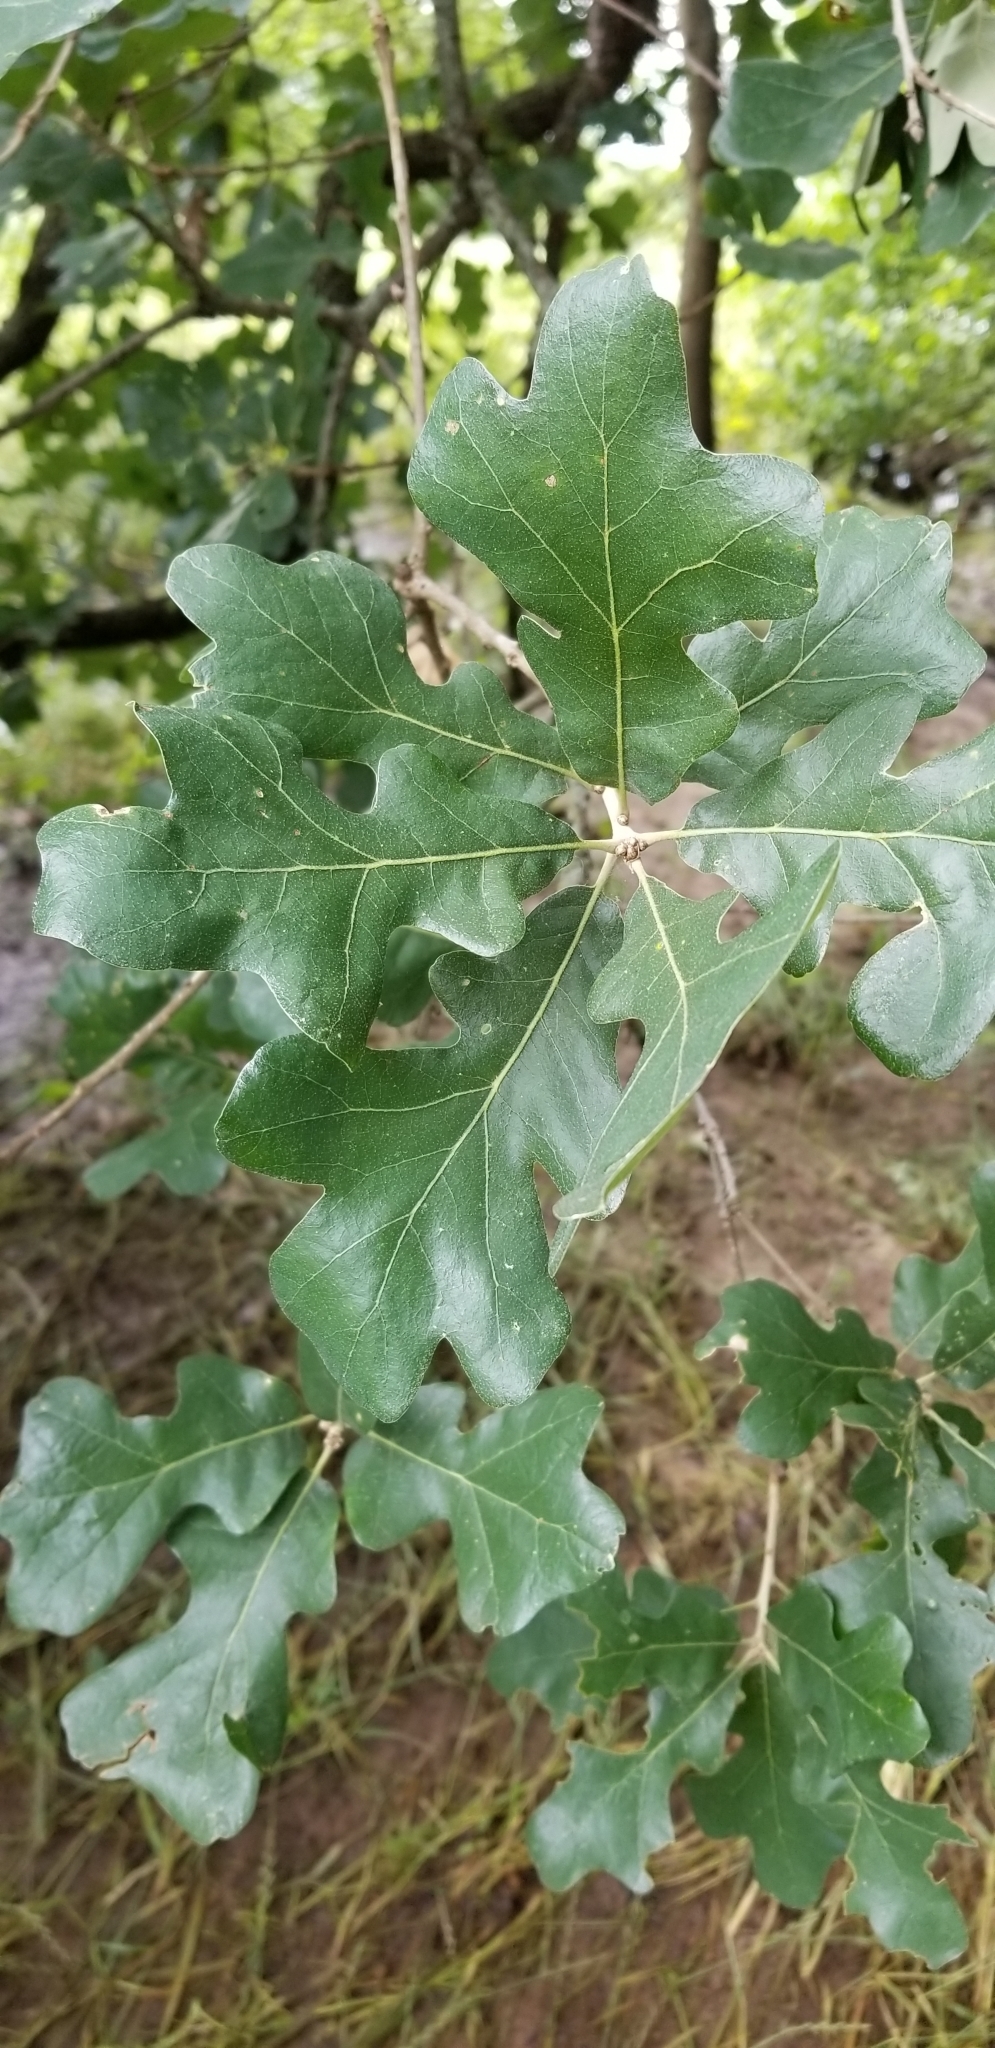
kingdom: Plantae
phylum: Tracheophyta
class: Magnoliopsida
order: Fagales
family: Fagaceae
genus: Quercus
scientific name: Quercus stellata
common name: Post oak
